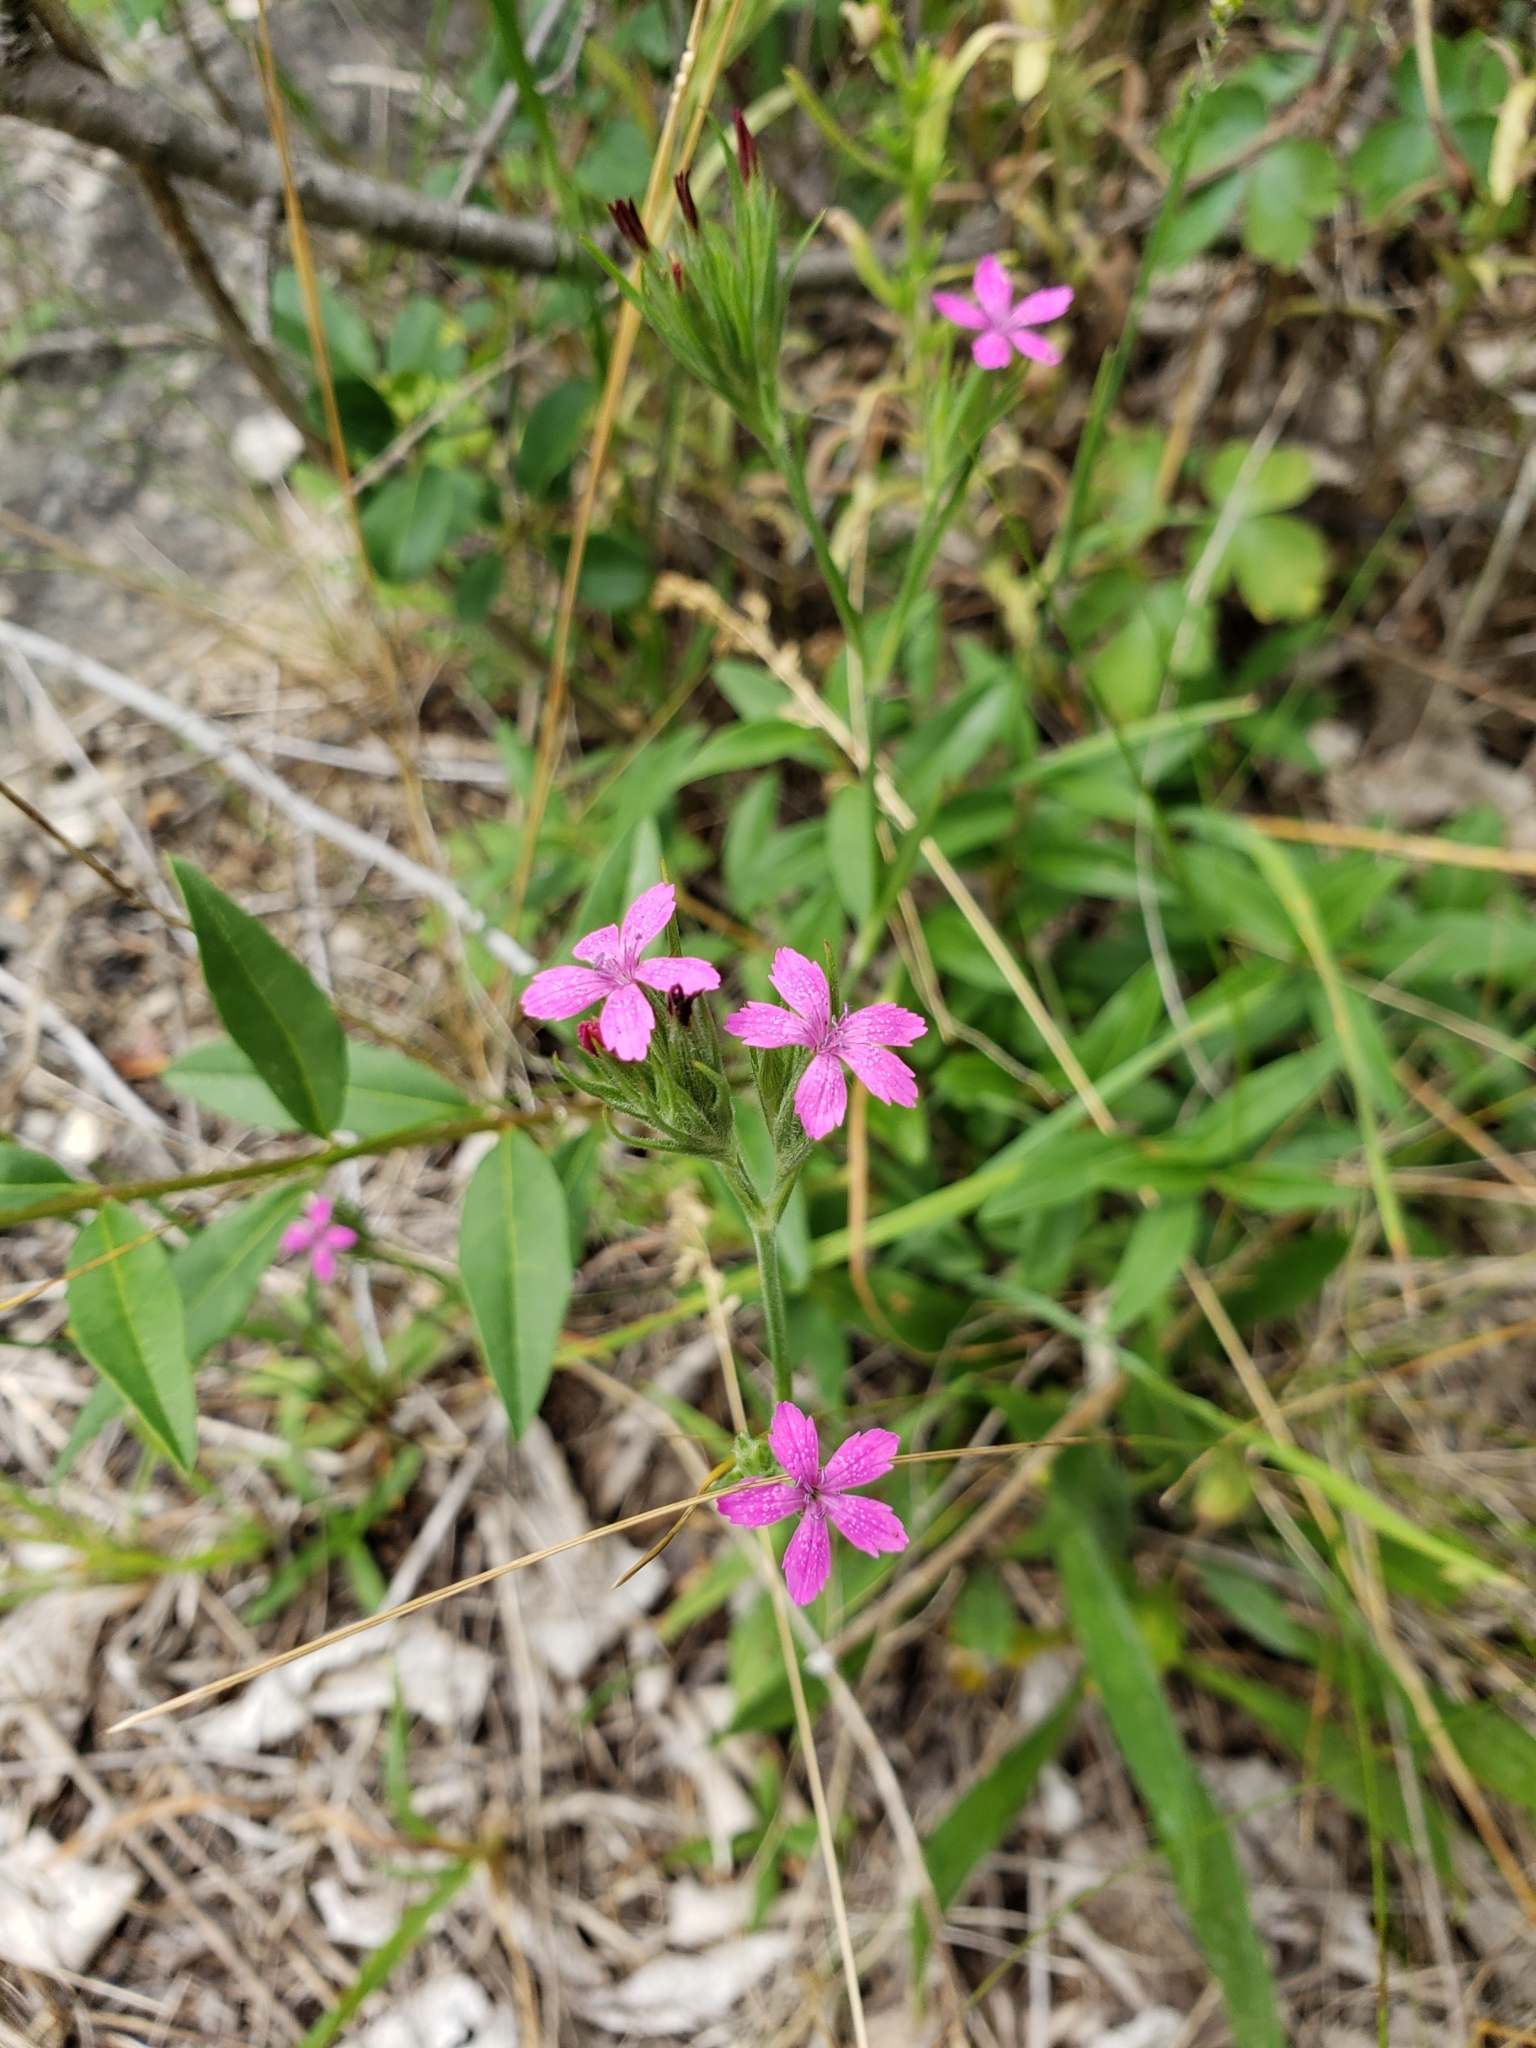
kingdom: Plantae
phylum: Tracheophyta
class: Magnoliopsida
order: Caryophyllales
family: Caryophyllaceae
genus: Dianthus
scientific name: Dianthus armeria
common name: Deptford pink
